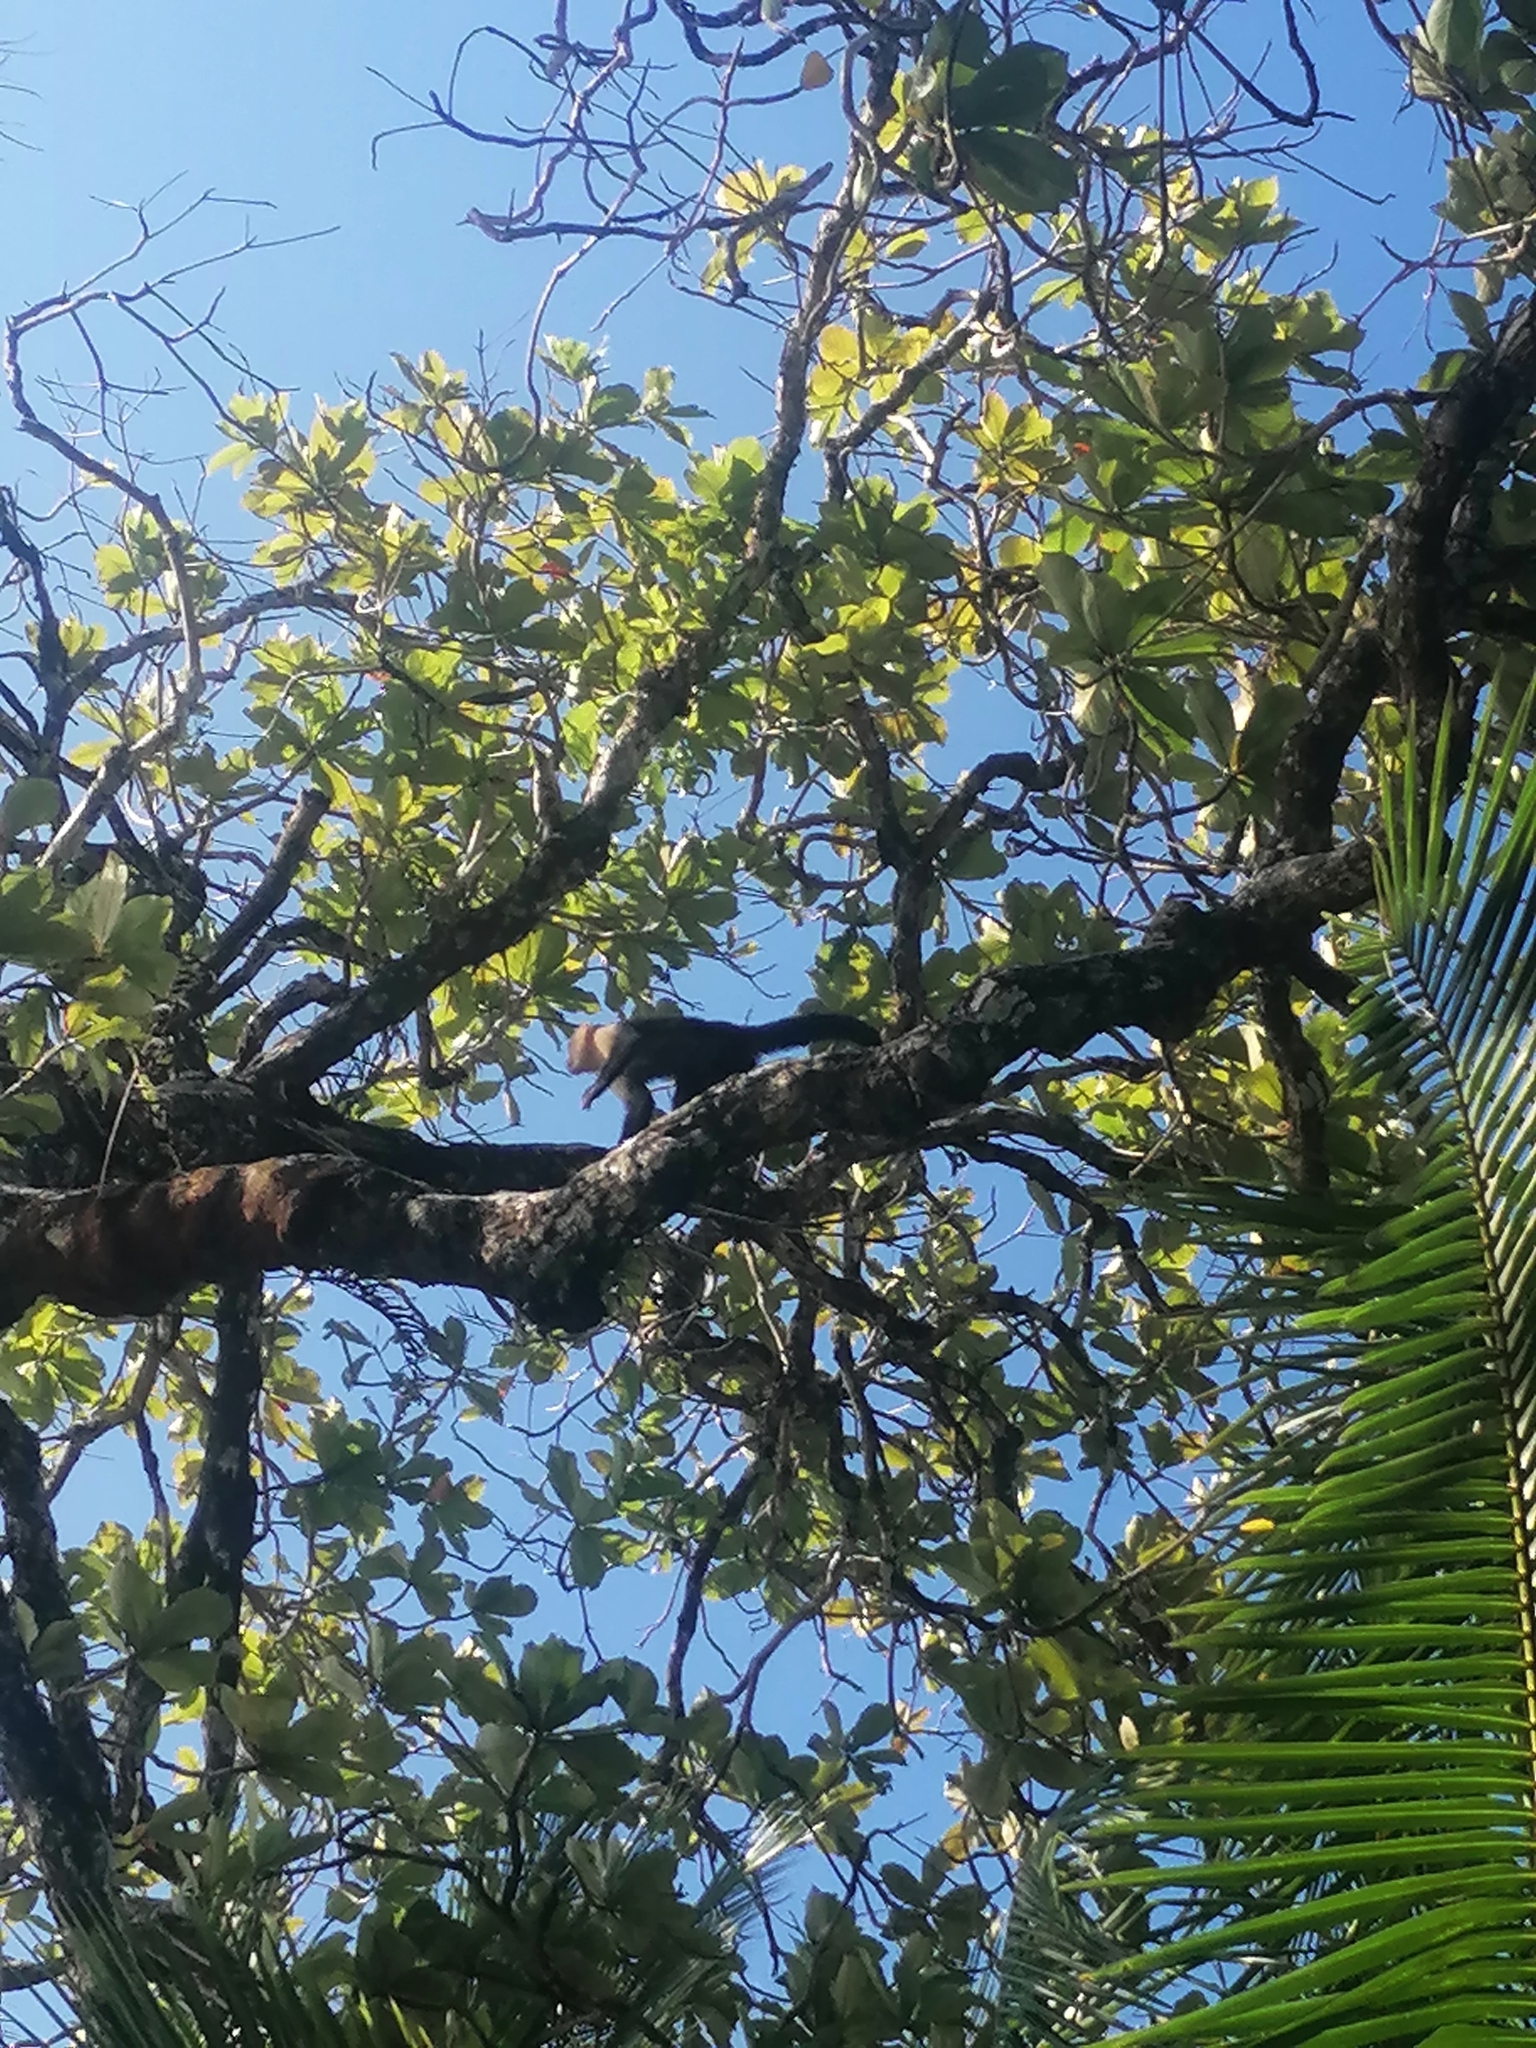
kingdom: Animalia
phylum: Chordata
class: Mammalia
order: Primates
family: Cebidae
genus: Cebus
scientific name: Cebus imitator
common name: Panamanian white-faced capuchin
